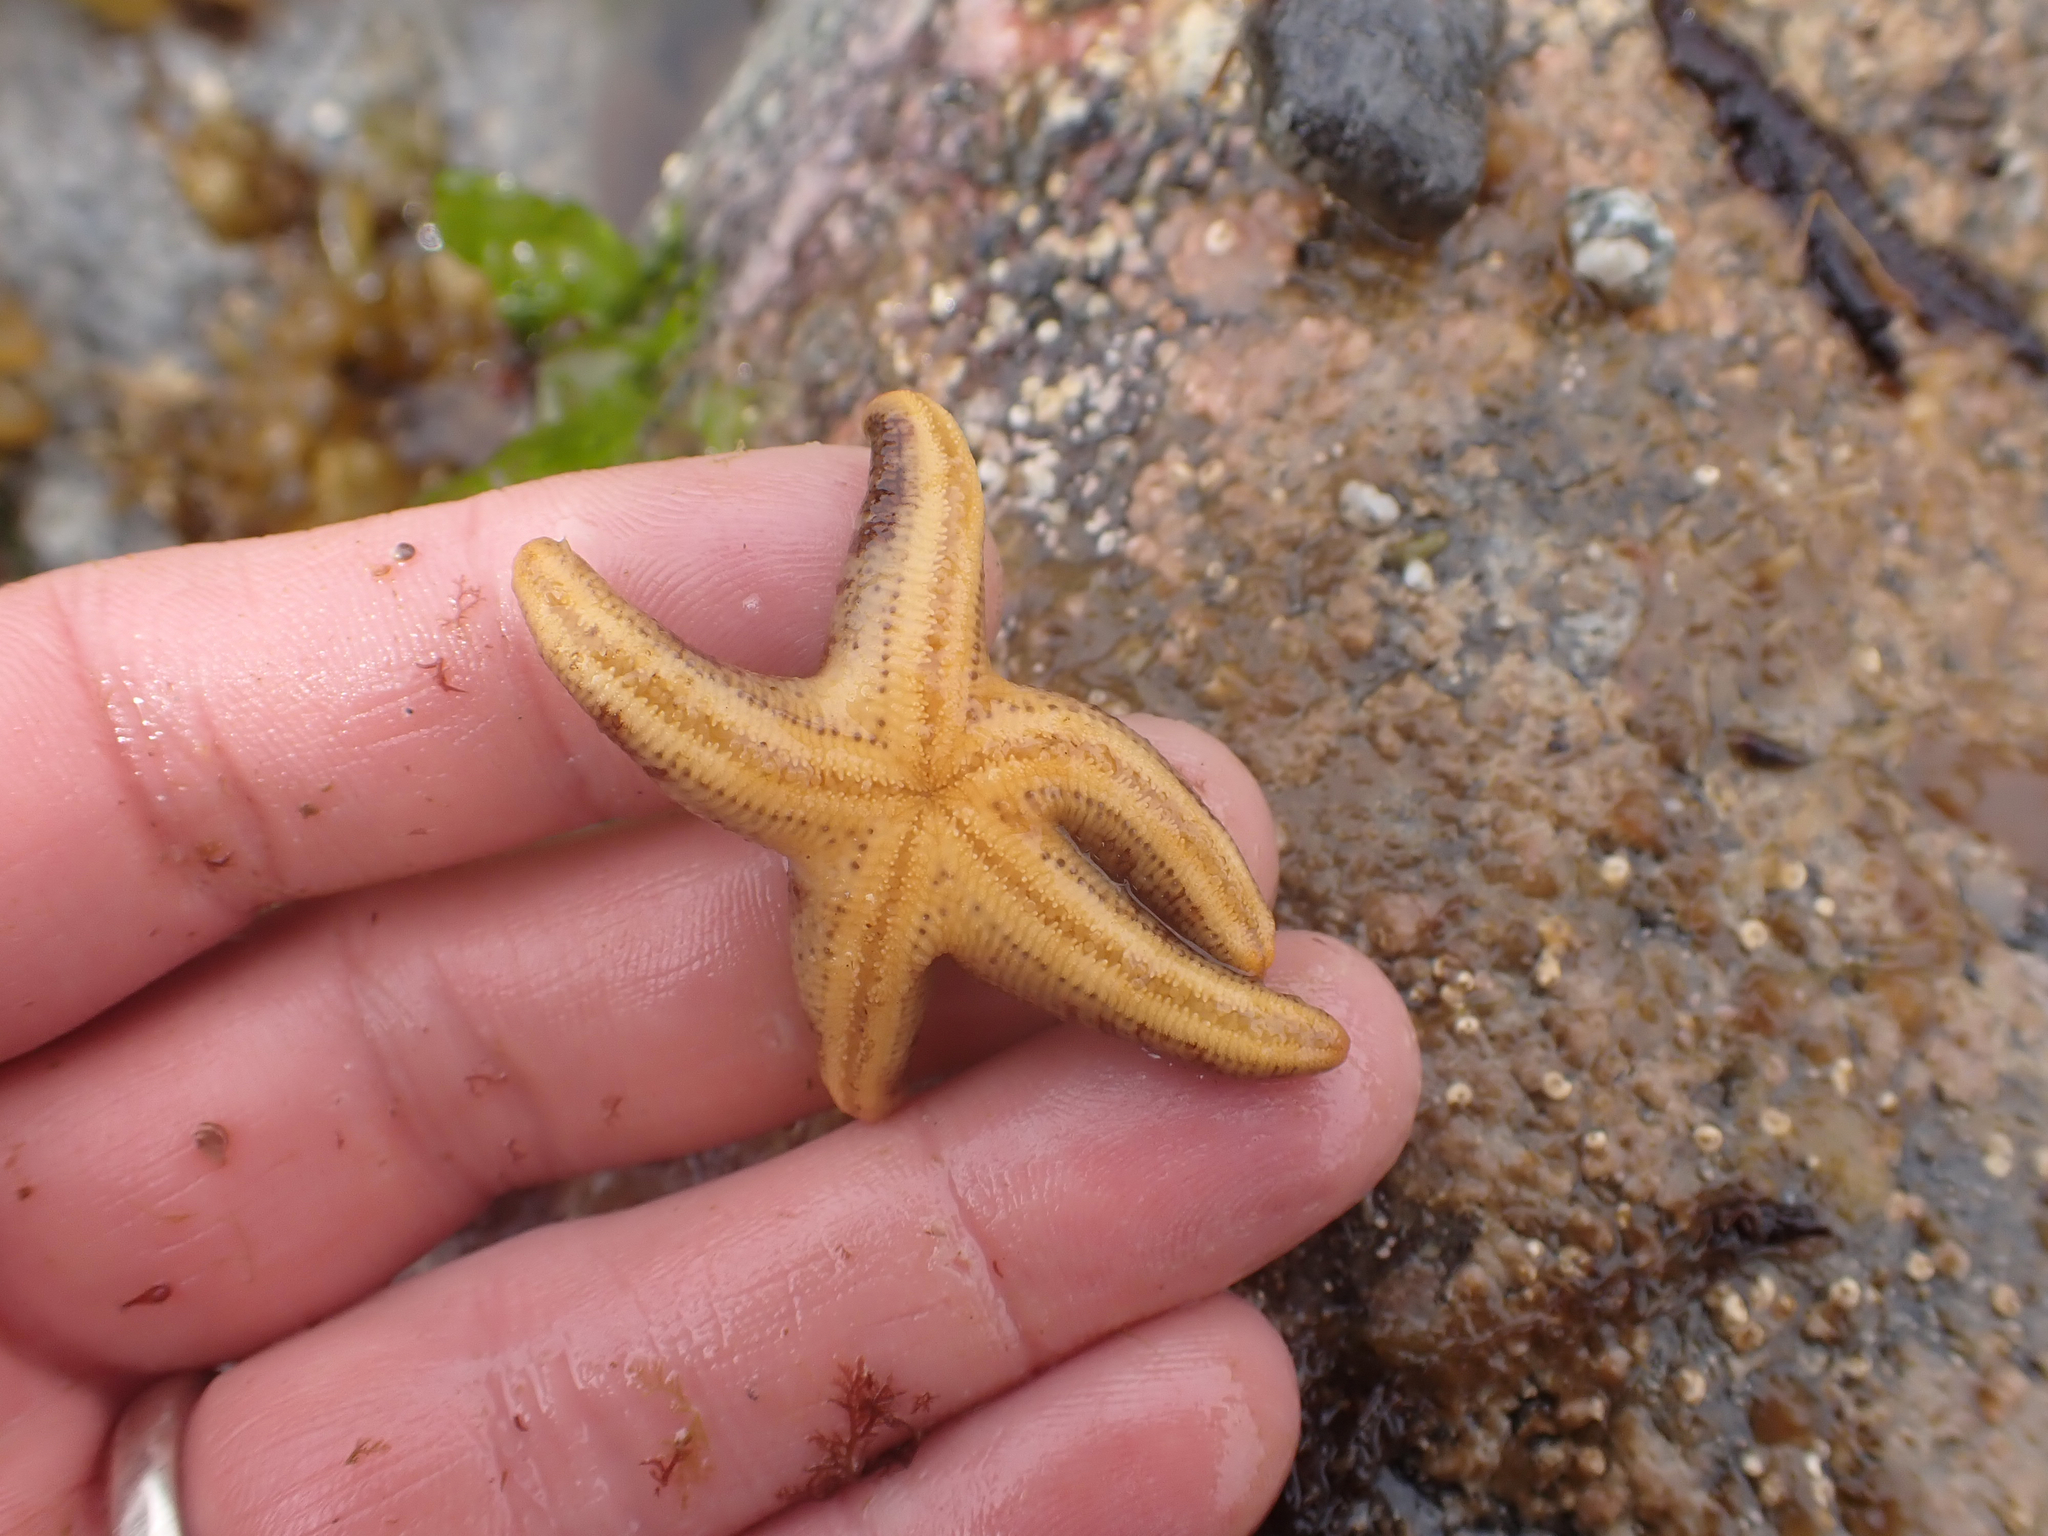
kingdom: Animalia
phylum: Echinodermata
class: Asteroidea
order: Spinulosida
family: Echinasteridae
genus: Henricia
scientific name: Henricia pumila
